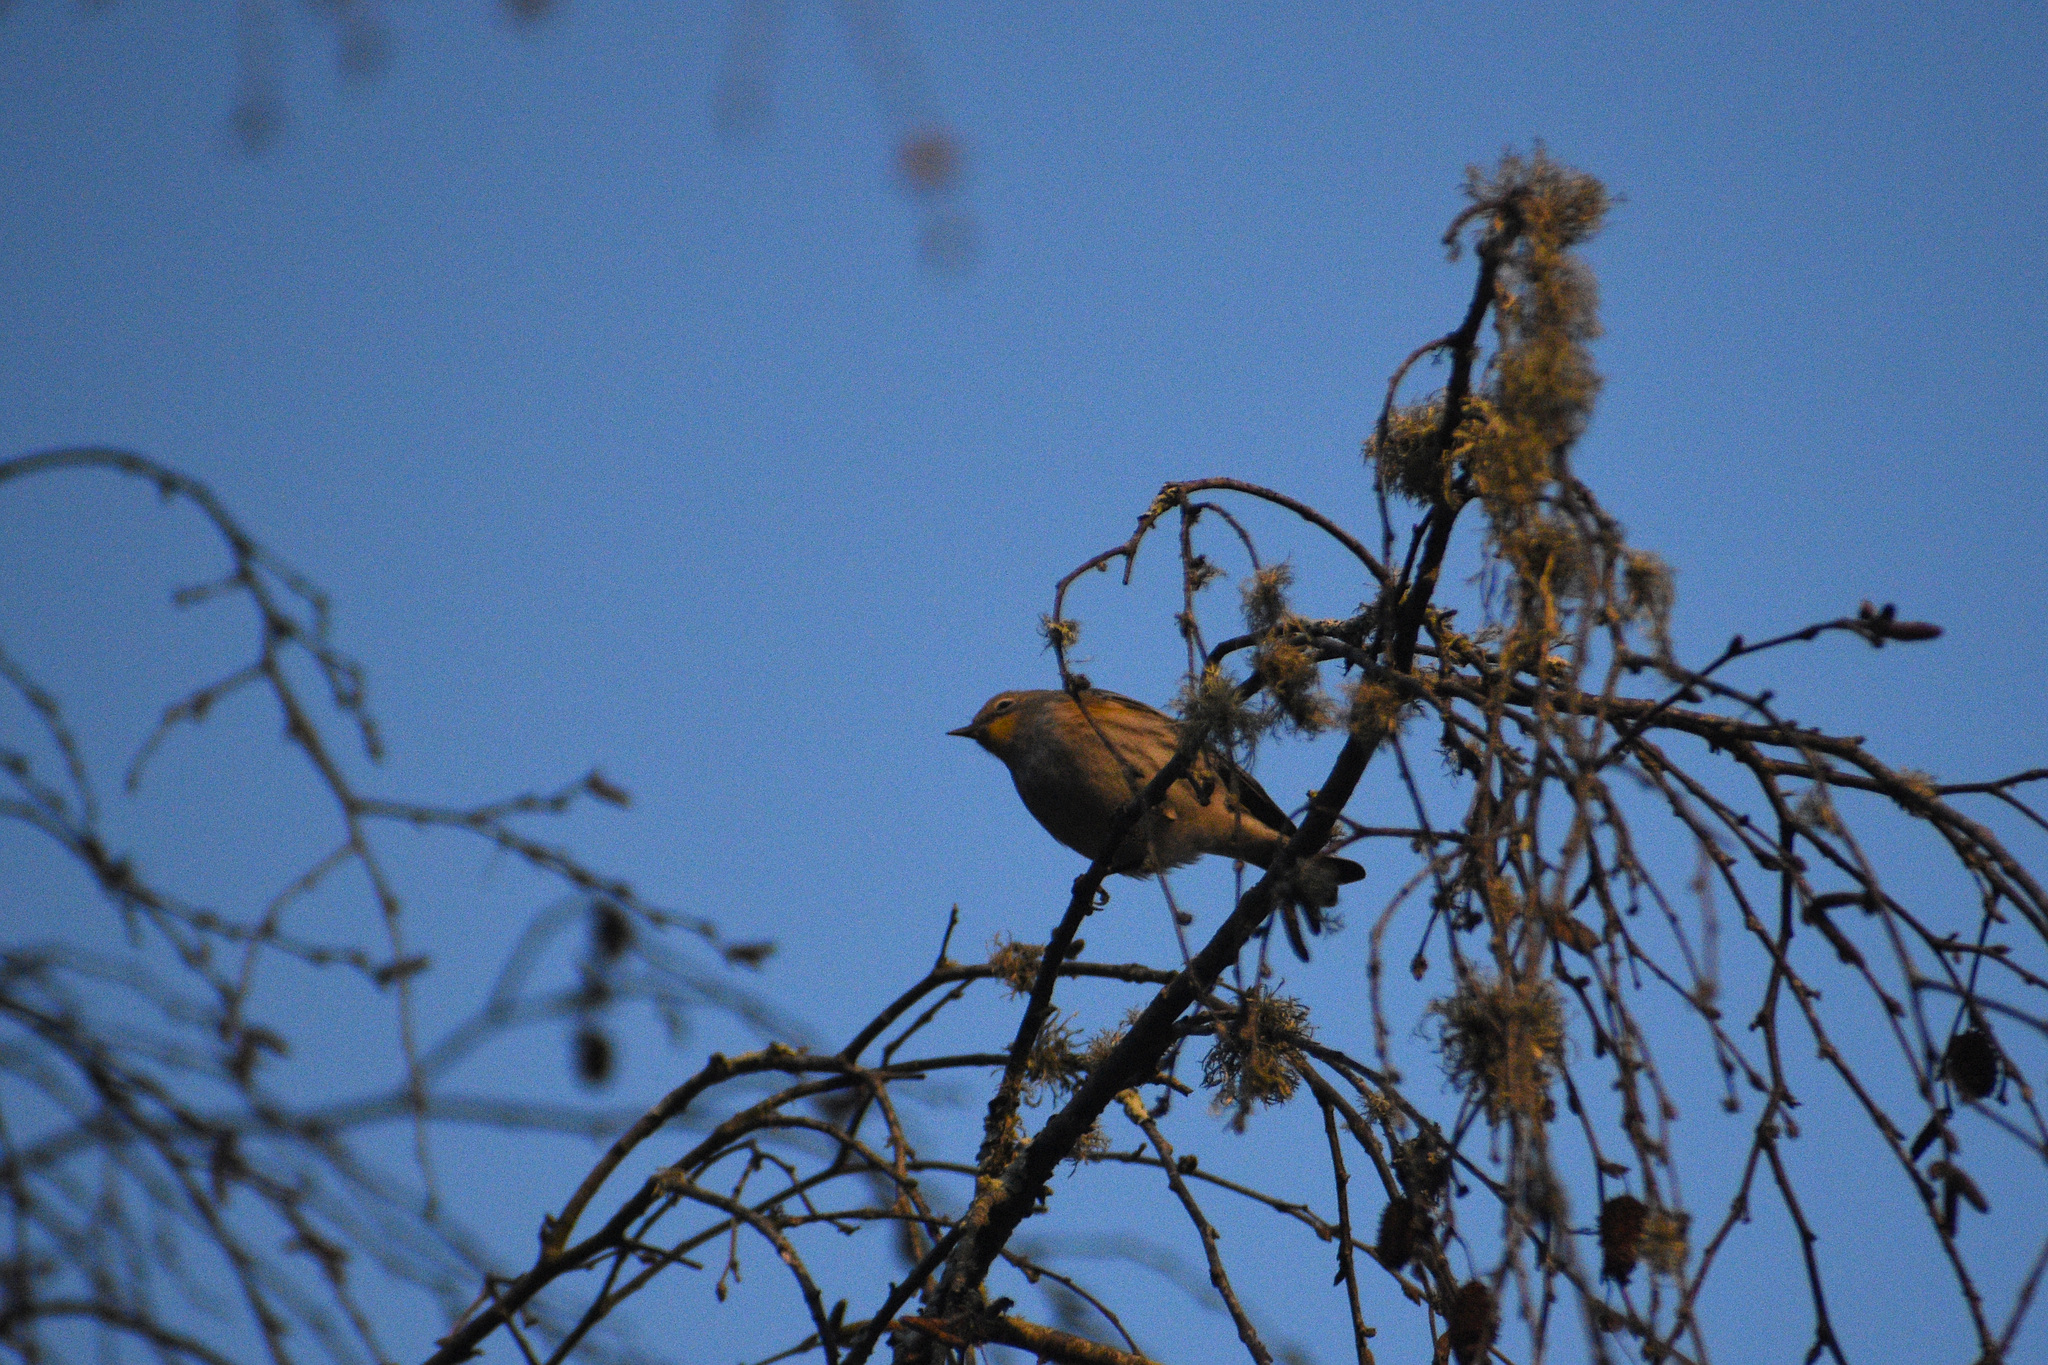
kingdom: Animalia
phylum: Chordata
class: Aves
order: Passeriformes
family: Parulidae
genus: Setophaga
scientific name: Setophaga coronata
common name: Myrtle warbler
